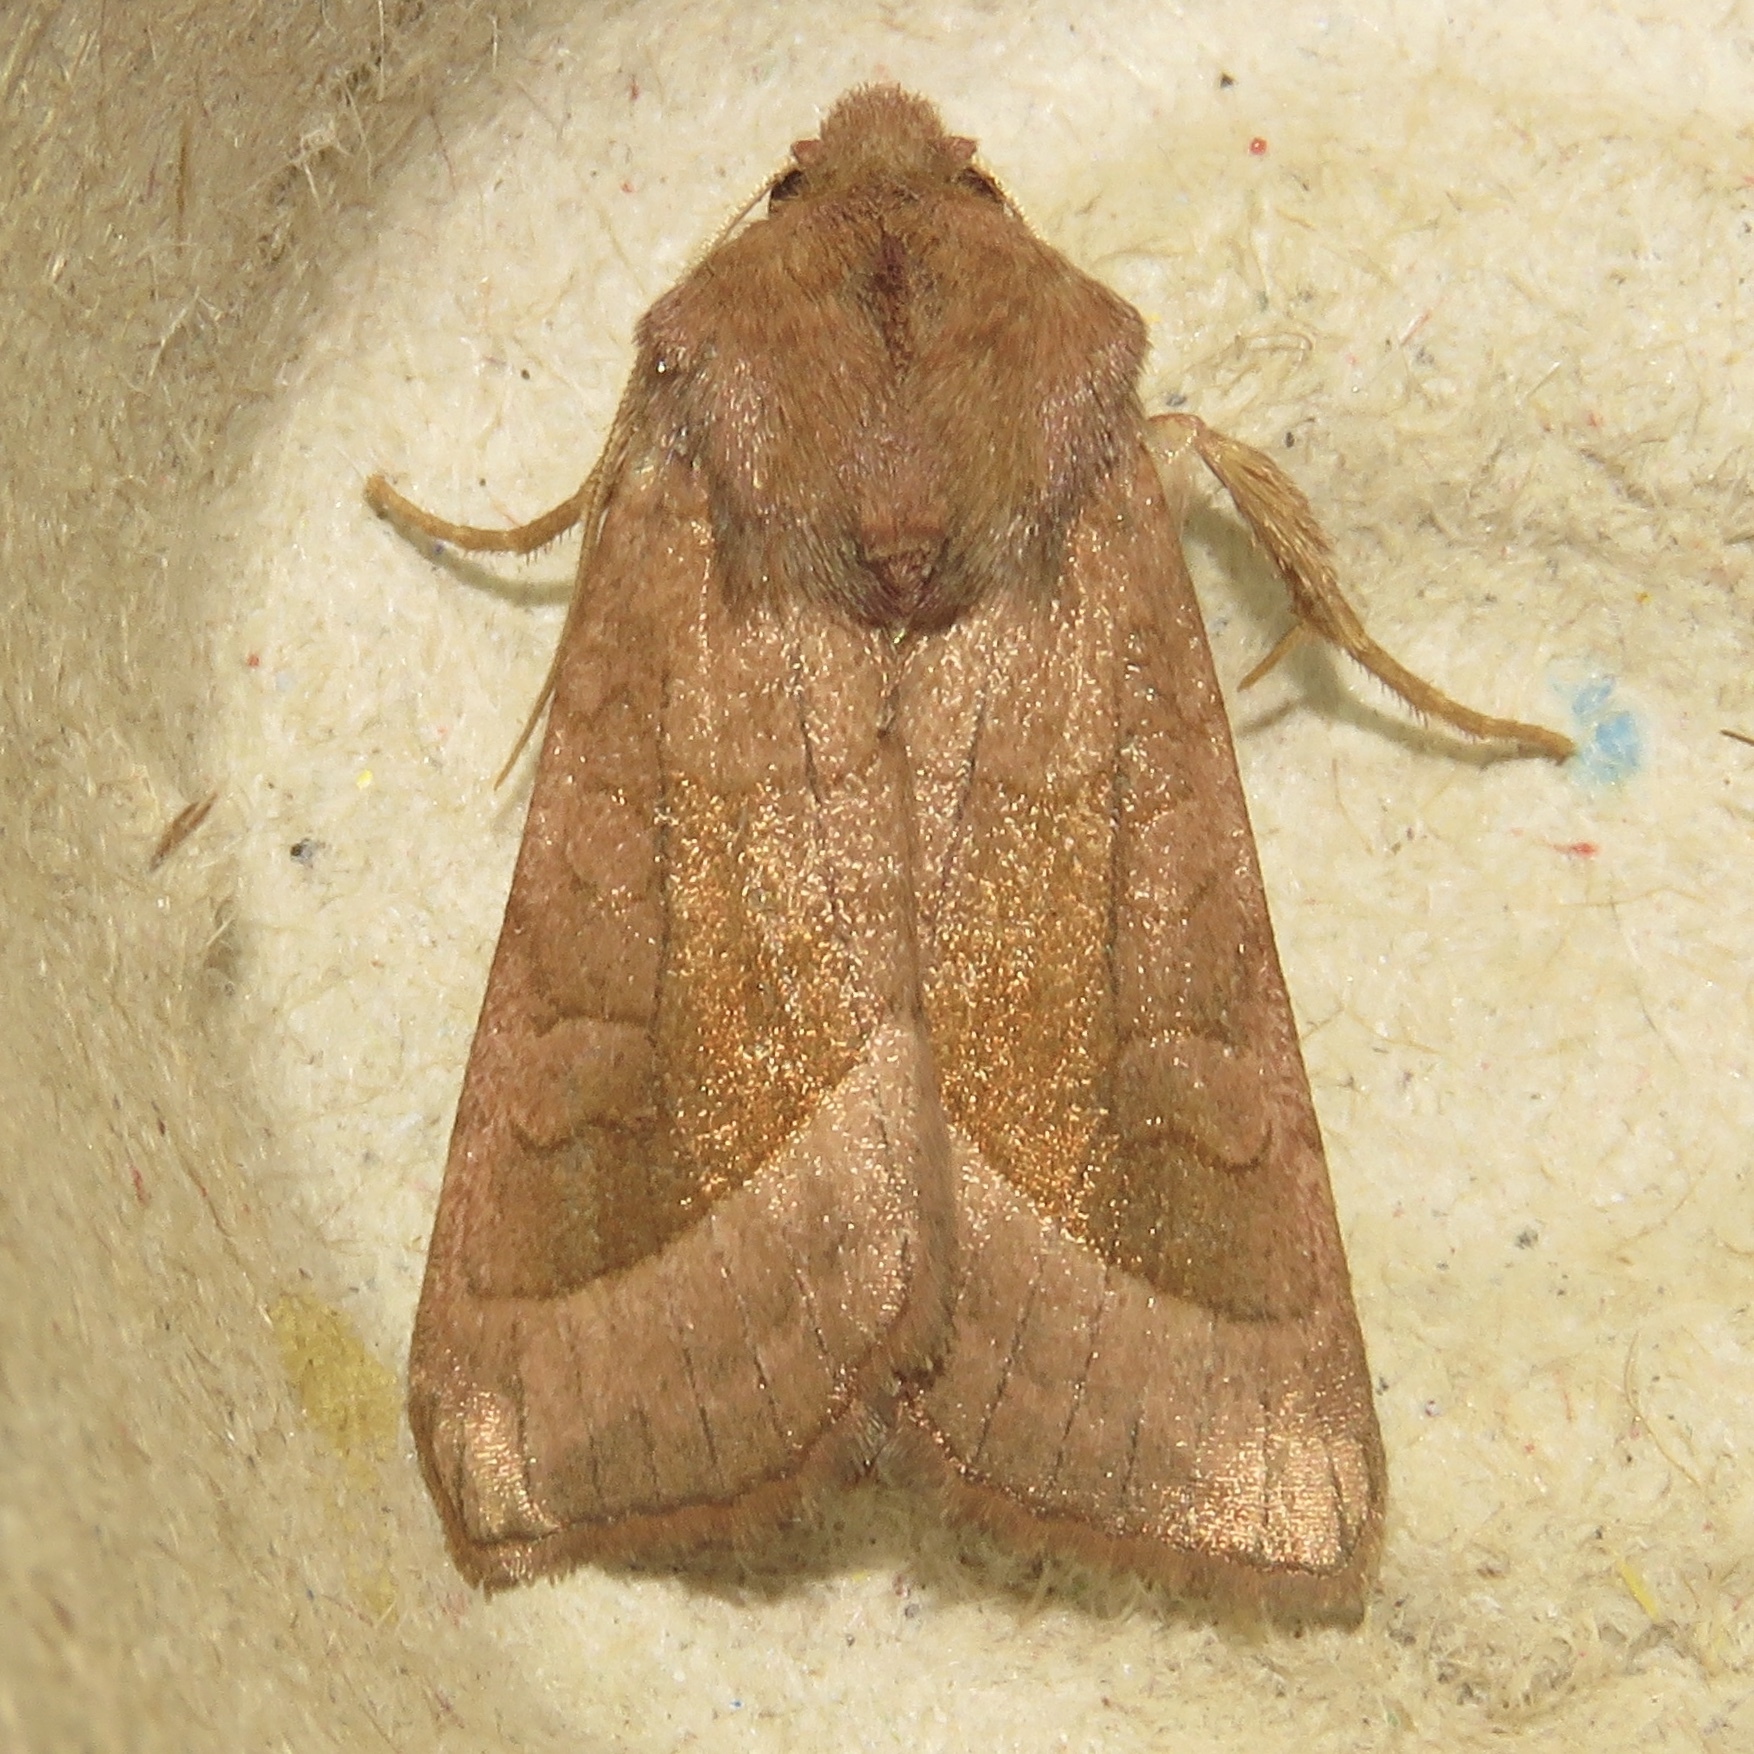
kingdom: Animalia
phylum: Arthropoda
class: Insecta
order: Lepidoptera
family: Noctuidae
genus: Hydraecia
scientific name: Hydraecia micacea
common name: Rosy rustic
